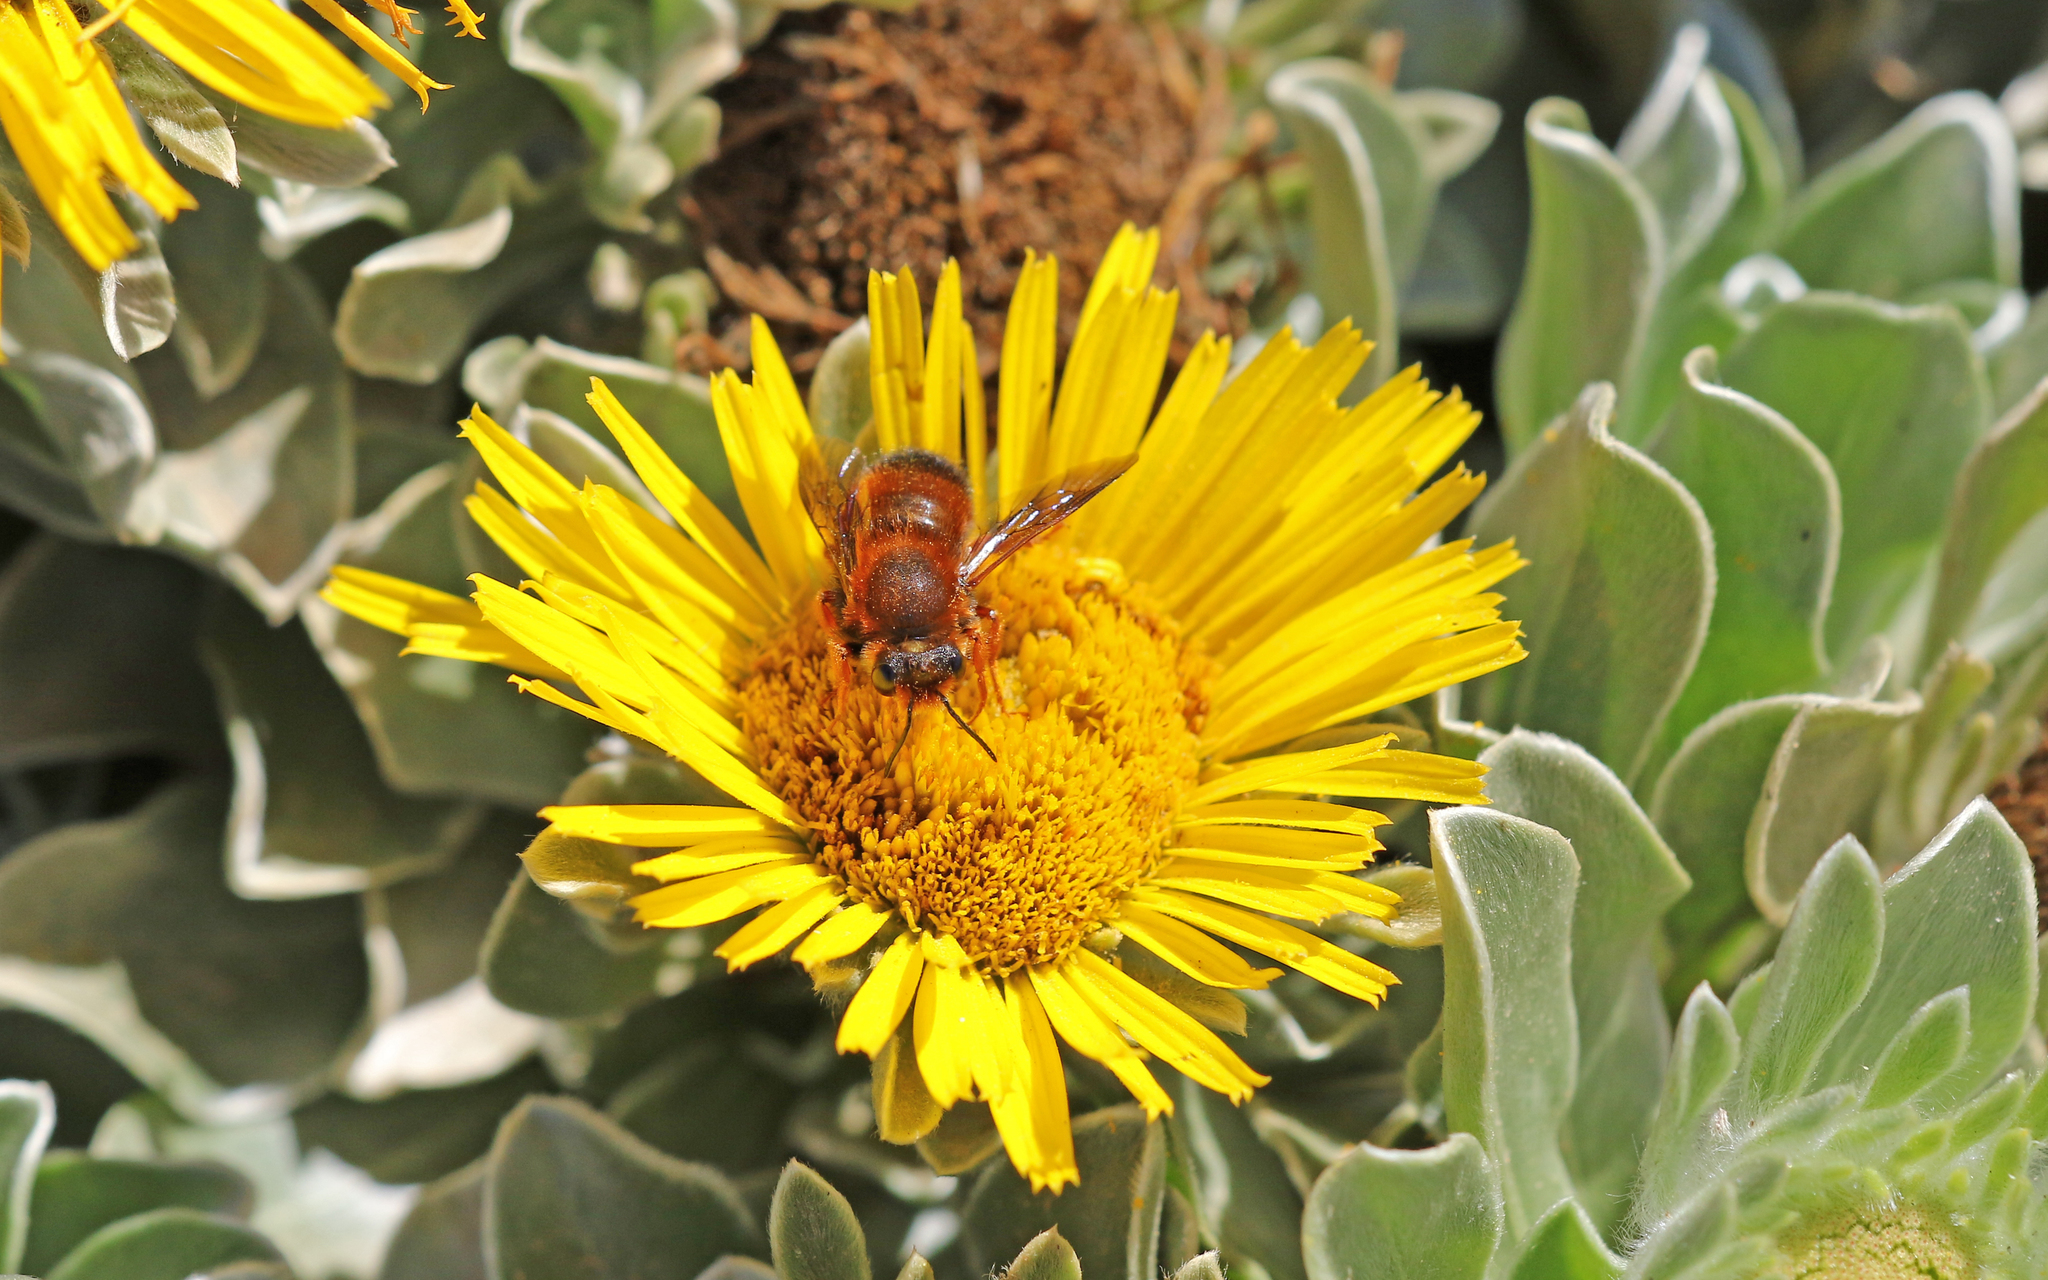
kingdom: Animalia
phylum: Arthropoda
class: Insecta
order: Hymenoptera
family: Megachilidae
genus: Megachile
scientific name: Megachile sicula
